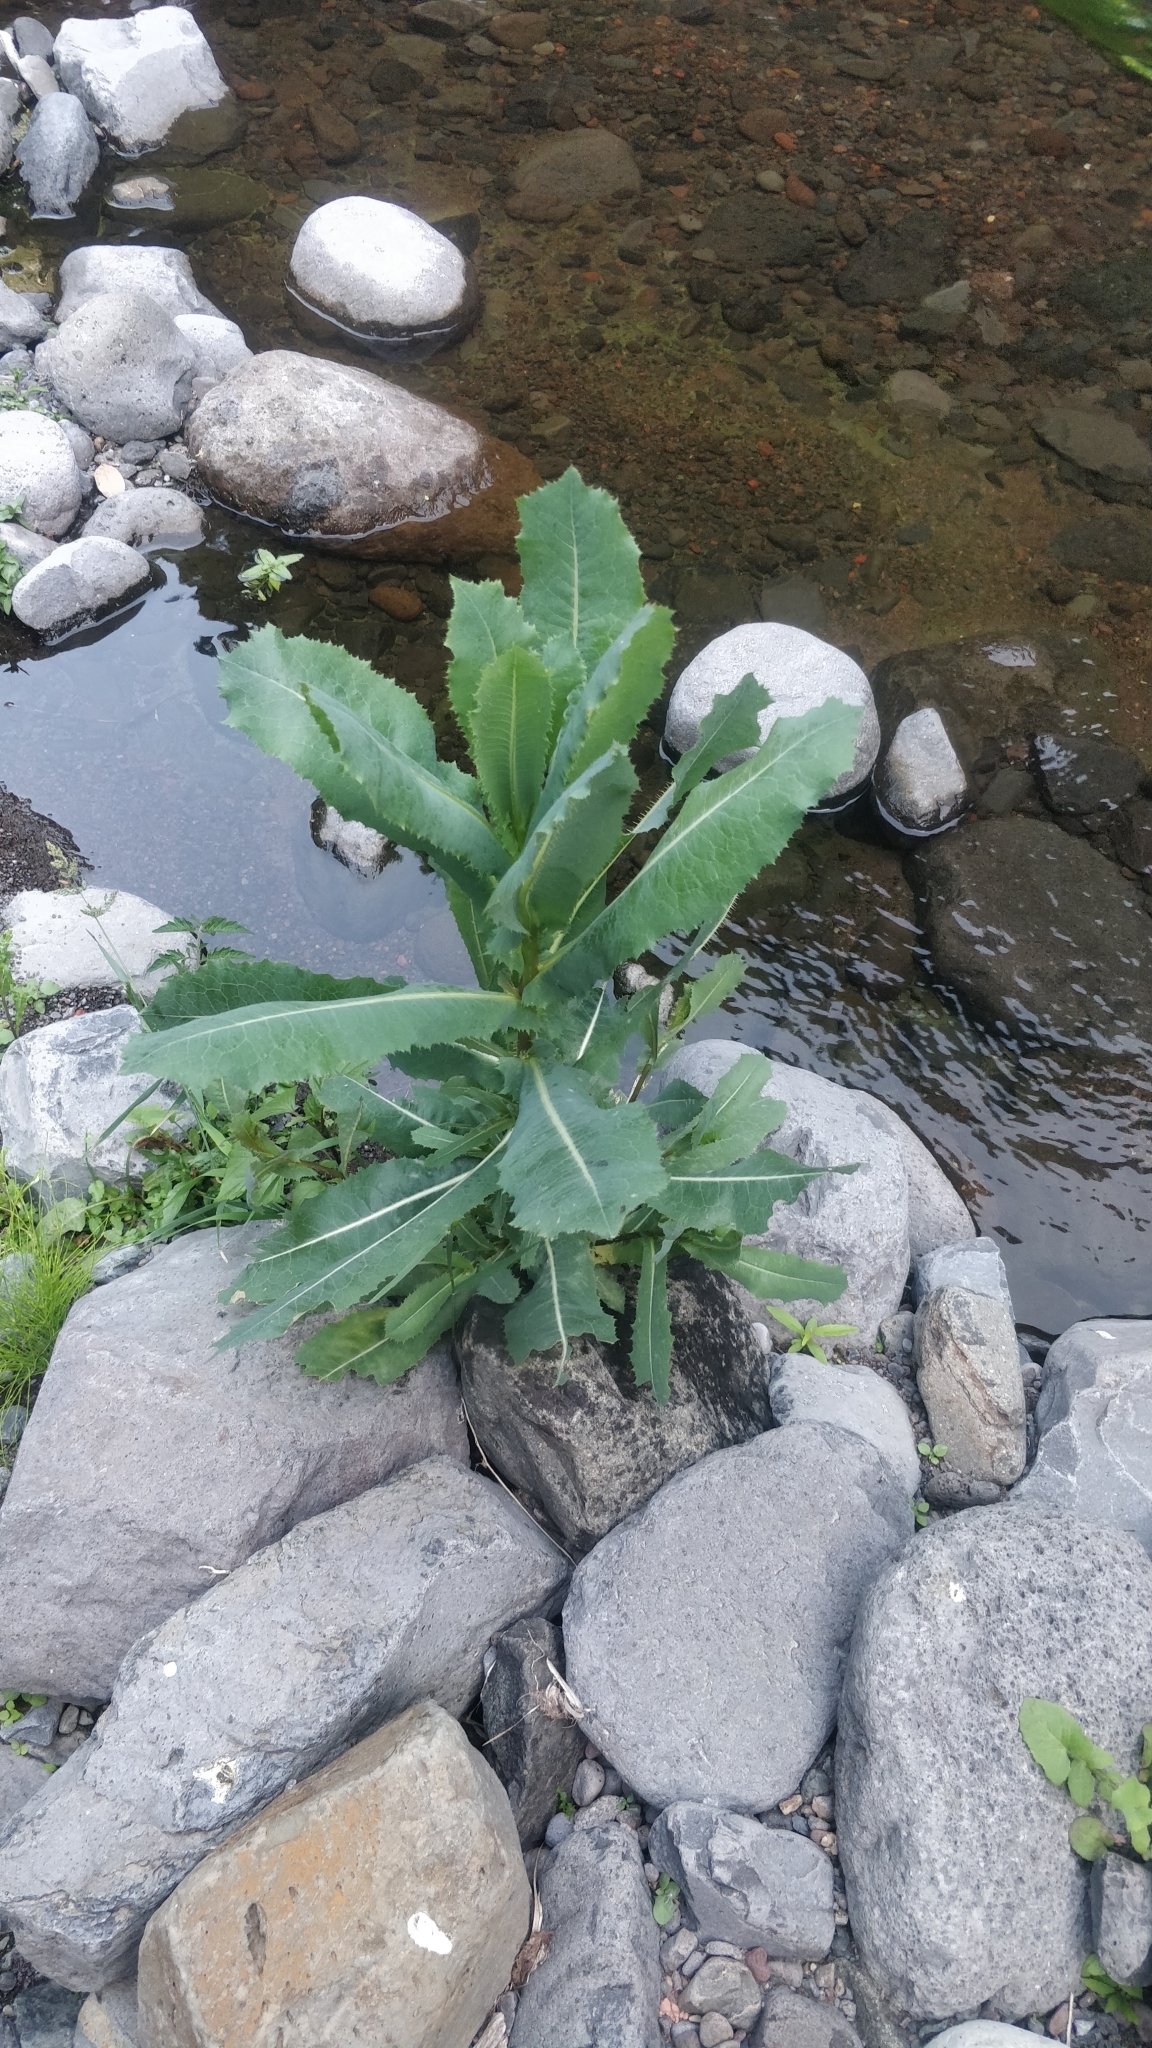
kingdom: Plantae
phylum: Tracheophyta
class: Magnoliopsida
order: Asterales
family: Asteraceae
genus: Lactuca
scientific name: Lactuca serriola
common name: Prickly lettuce
